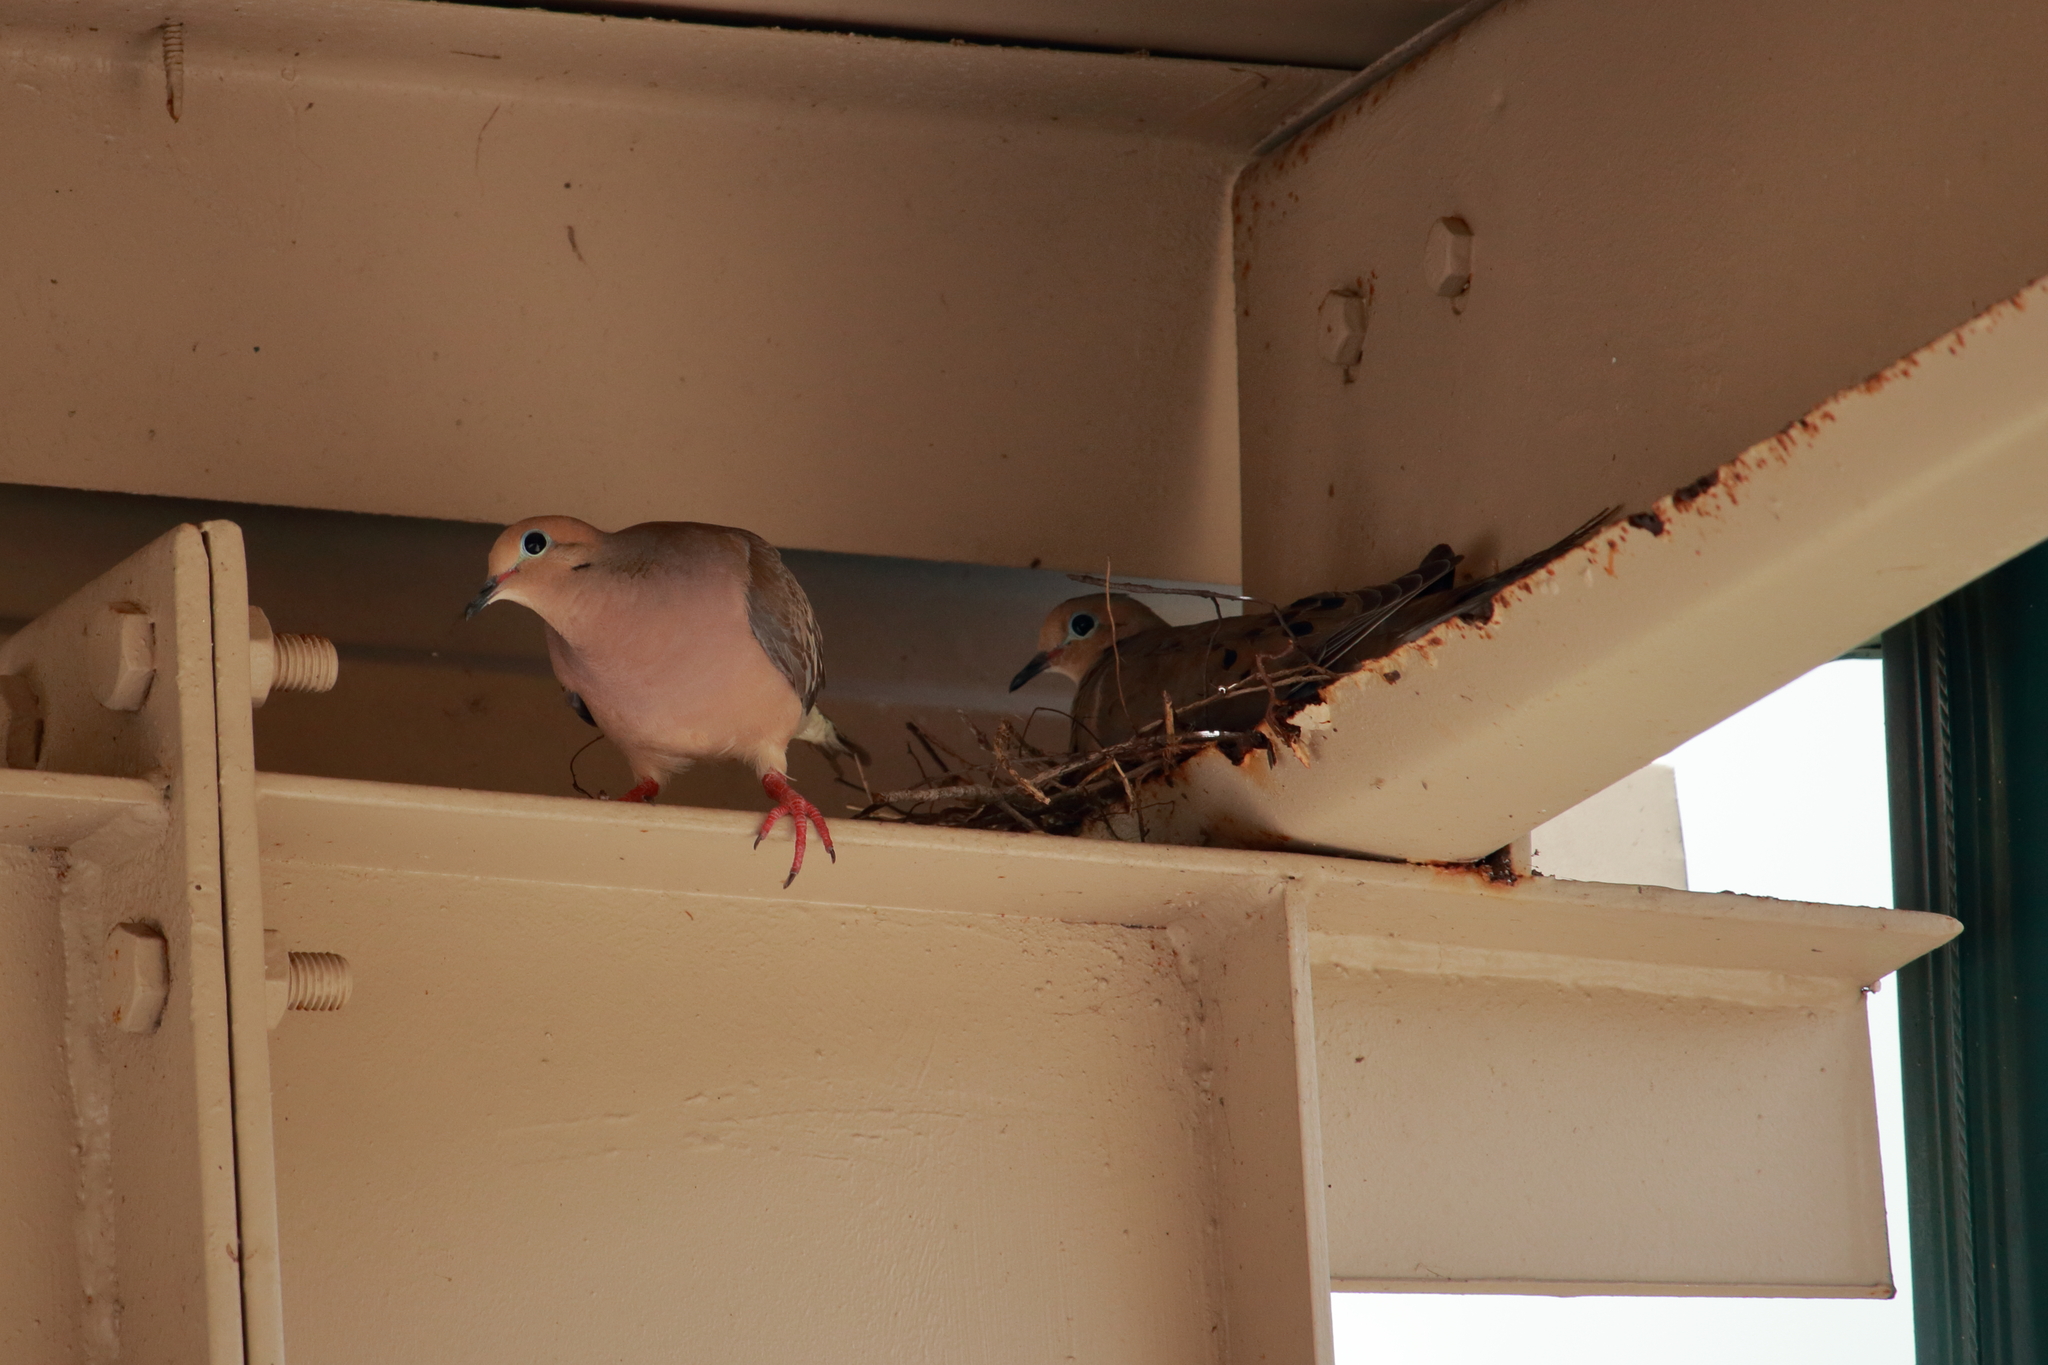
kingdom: Animalia
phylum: Chordata
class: Aves
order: Columbiformes
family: Columbidae
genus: Zenaida
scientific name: Zenaida macroura
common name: Mourning dove
